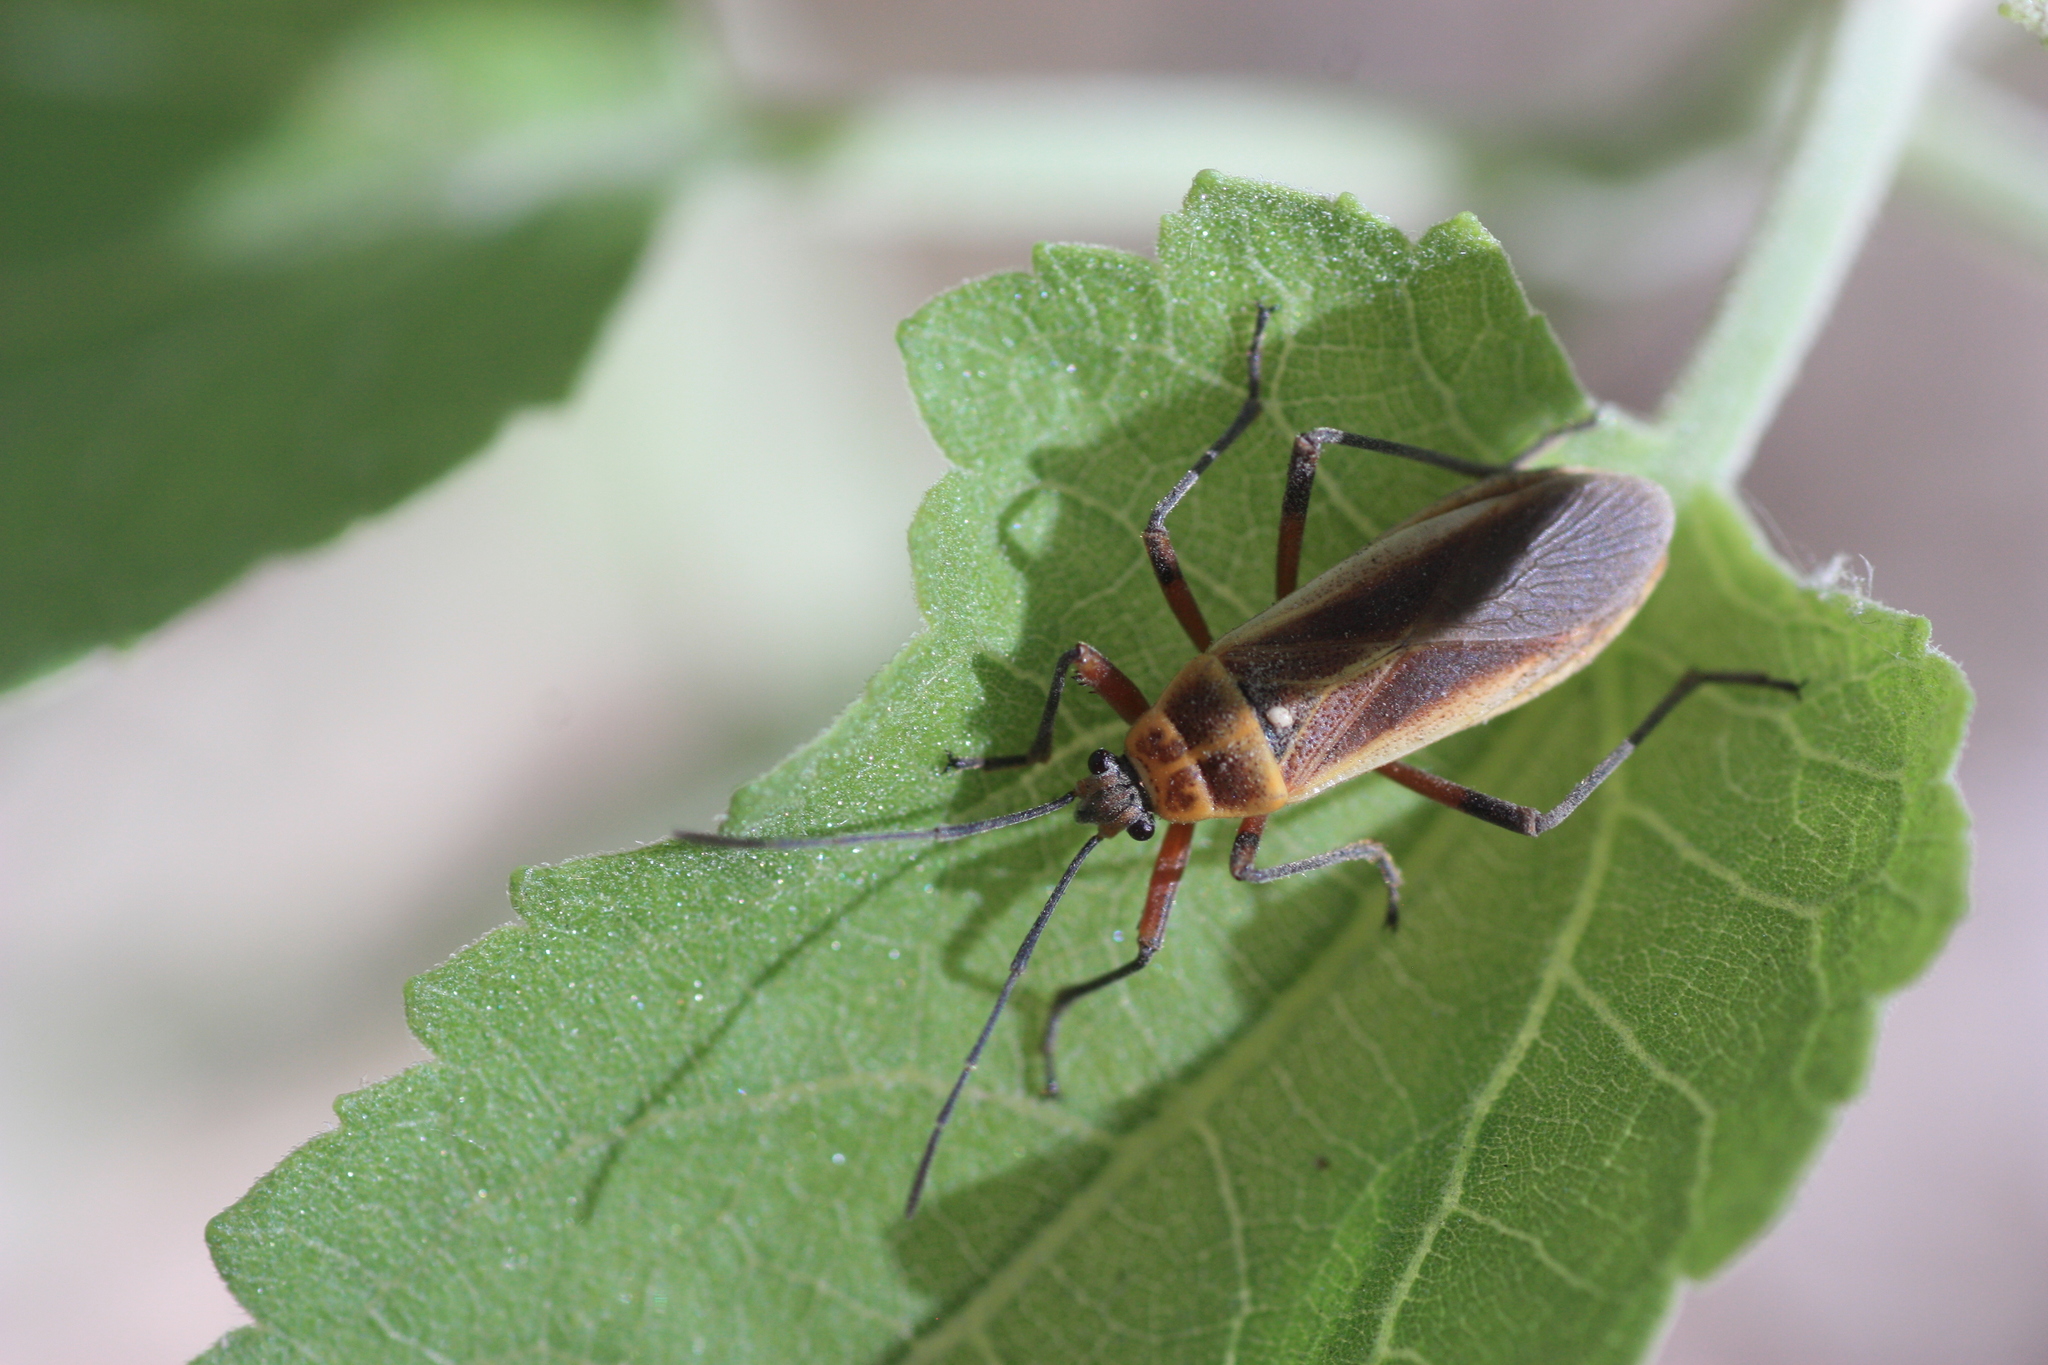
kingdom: Animalia
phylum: Arthropoda
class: Insecta
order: Hemiptera
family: Largidae
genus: Stenomacra
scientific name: Stenomacra marginella
